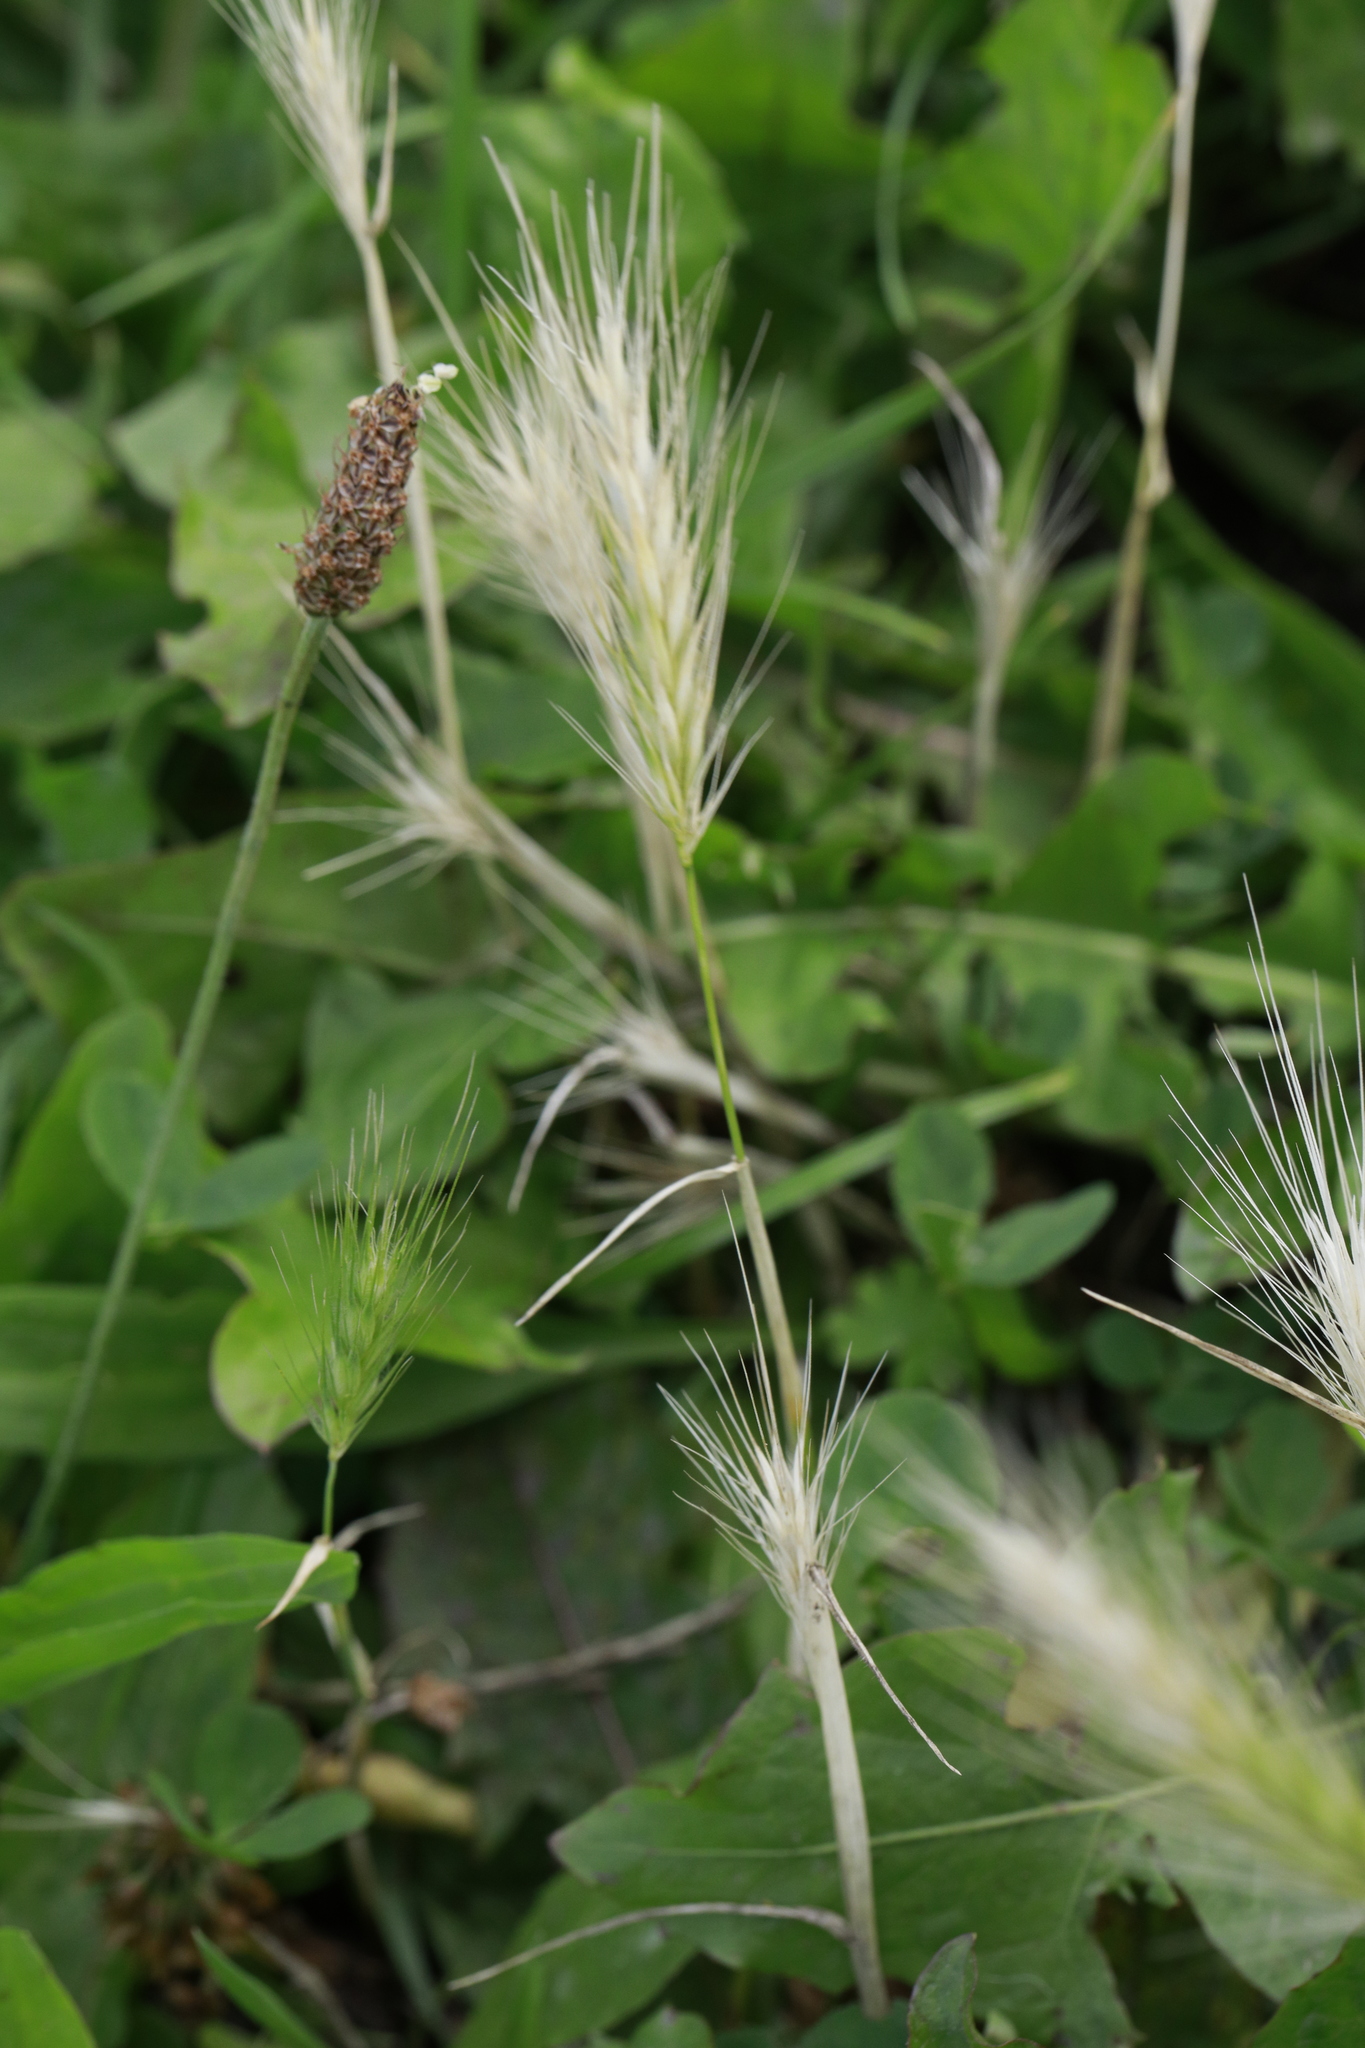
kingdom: Plantae
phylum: Tracheophyta
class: Liliopsida
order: Poales
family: Poaceae
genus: Hordeum
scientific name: Hordeum murinum
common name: Wall barley
